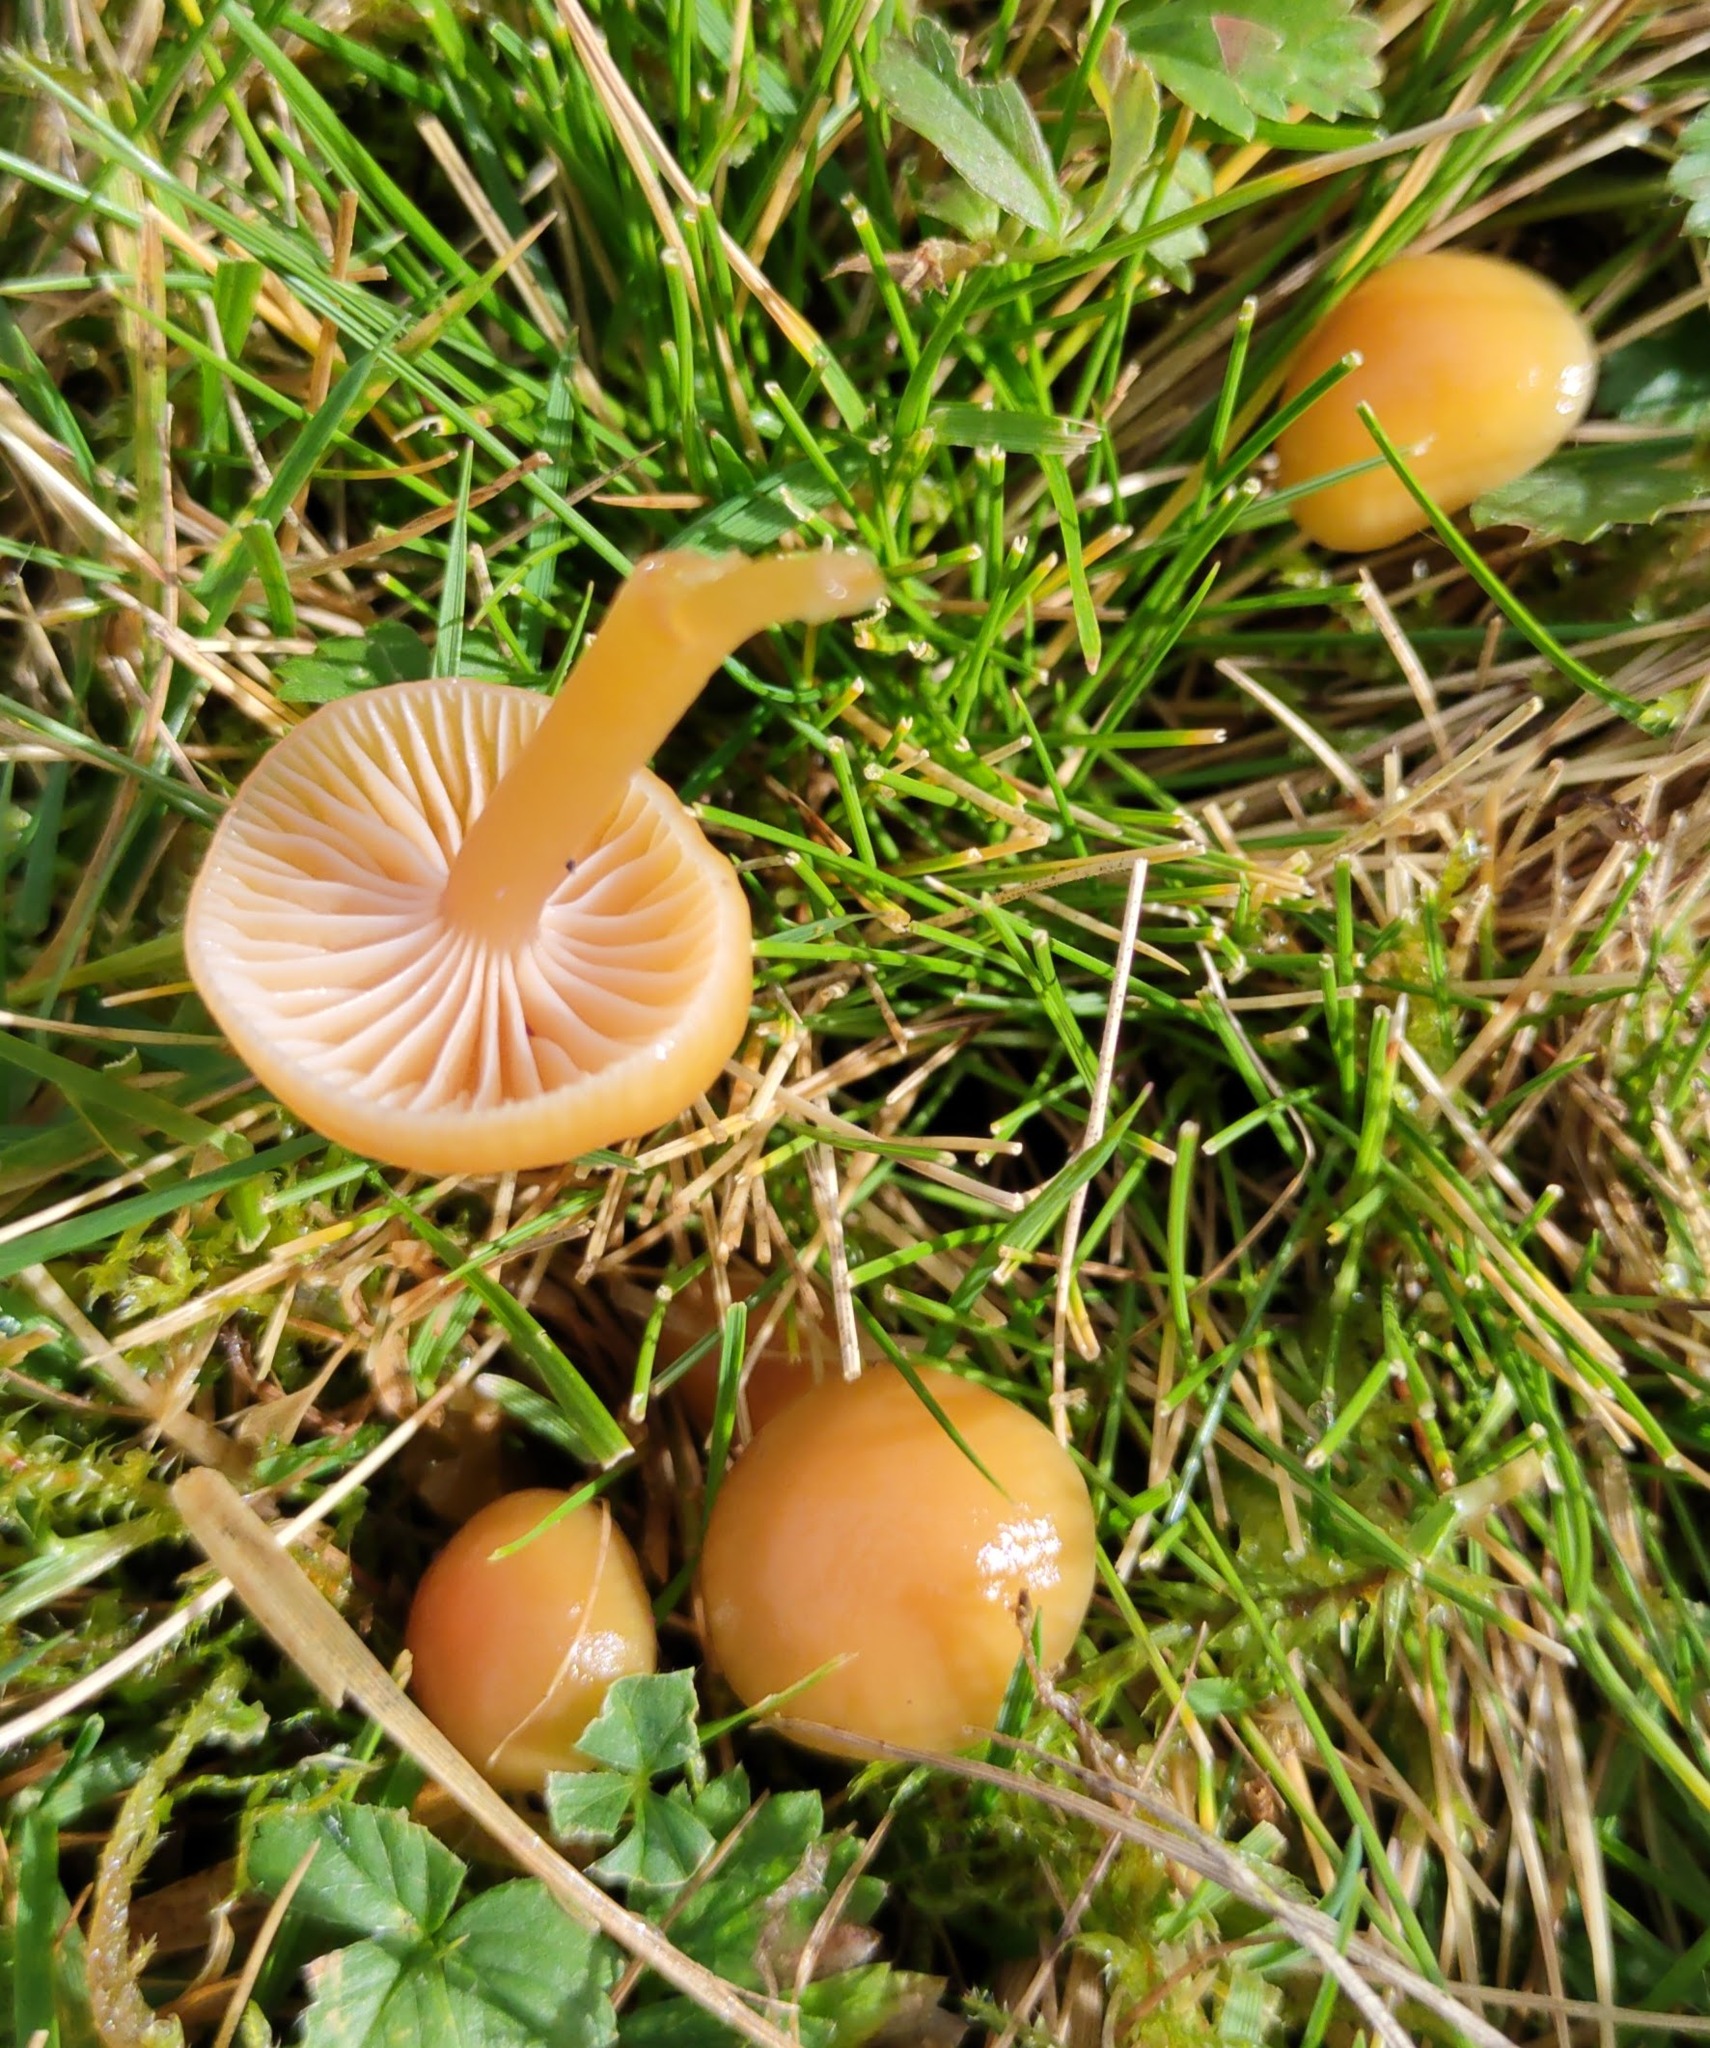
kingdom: Fungi
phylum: Basidiomycota
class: Agaricomycetes
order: Agaricales
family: Hygrophoraceae
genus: Gliophorus
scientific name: Gliophorus laetus
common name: Heath waxcap
